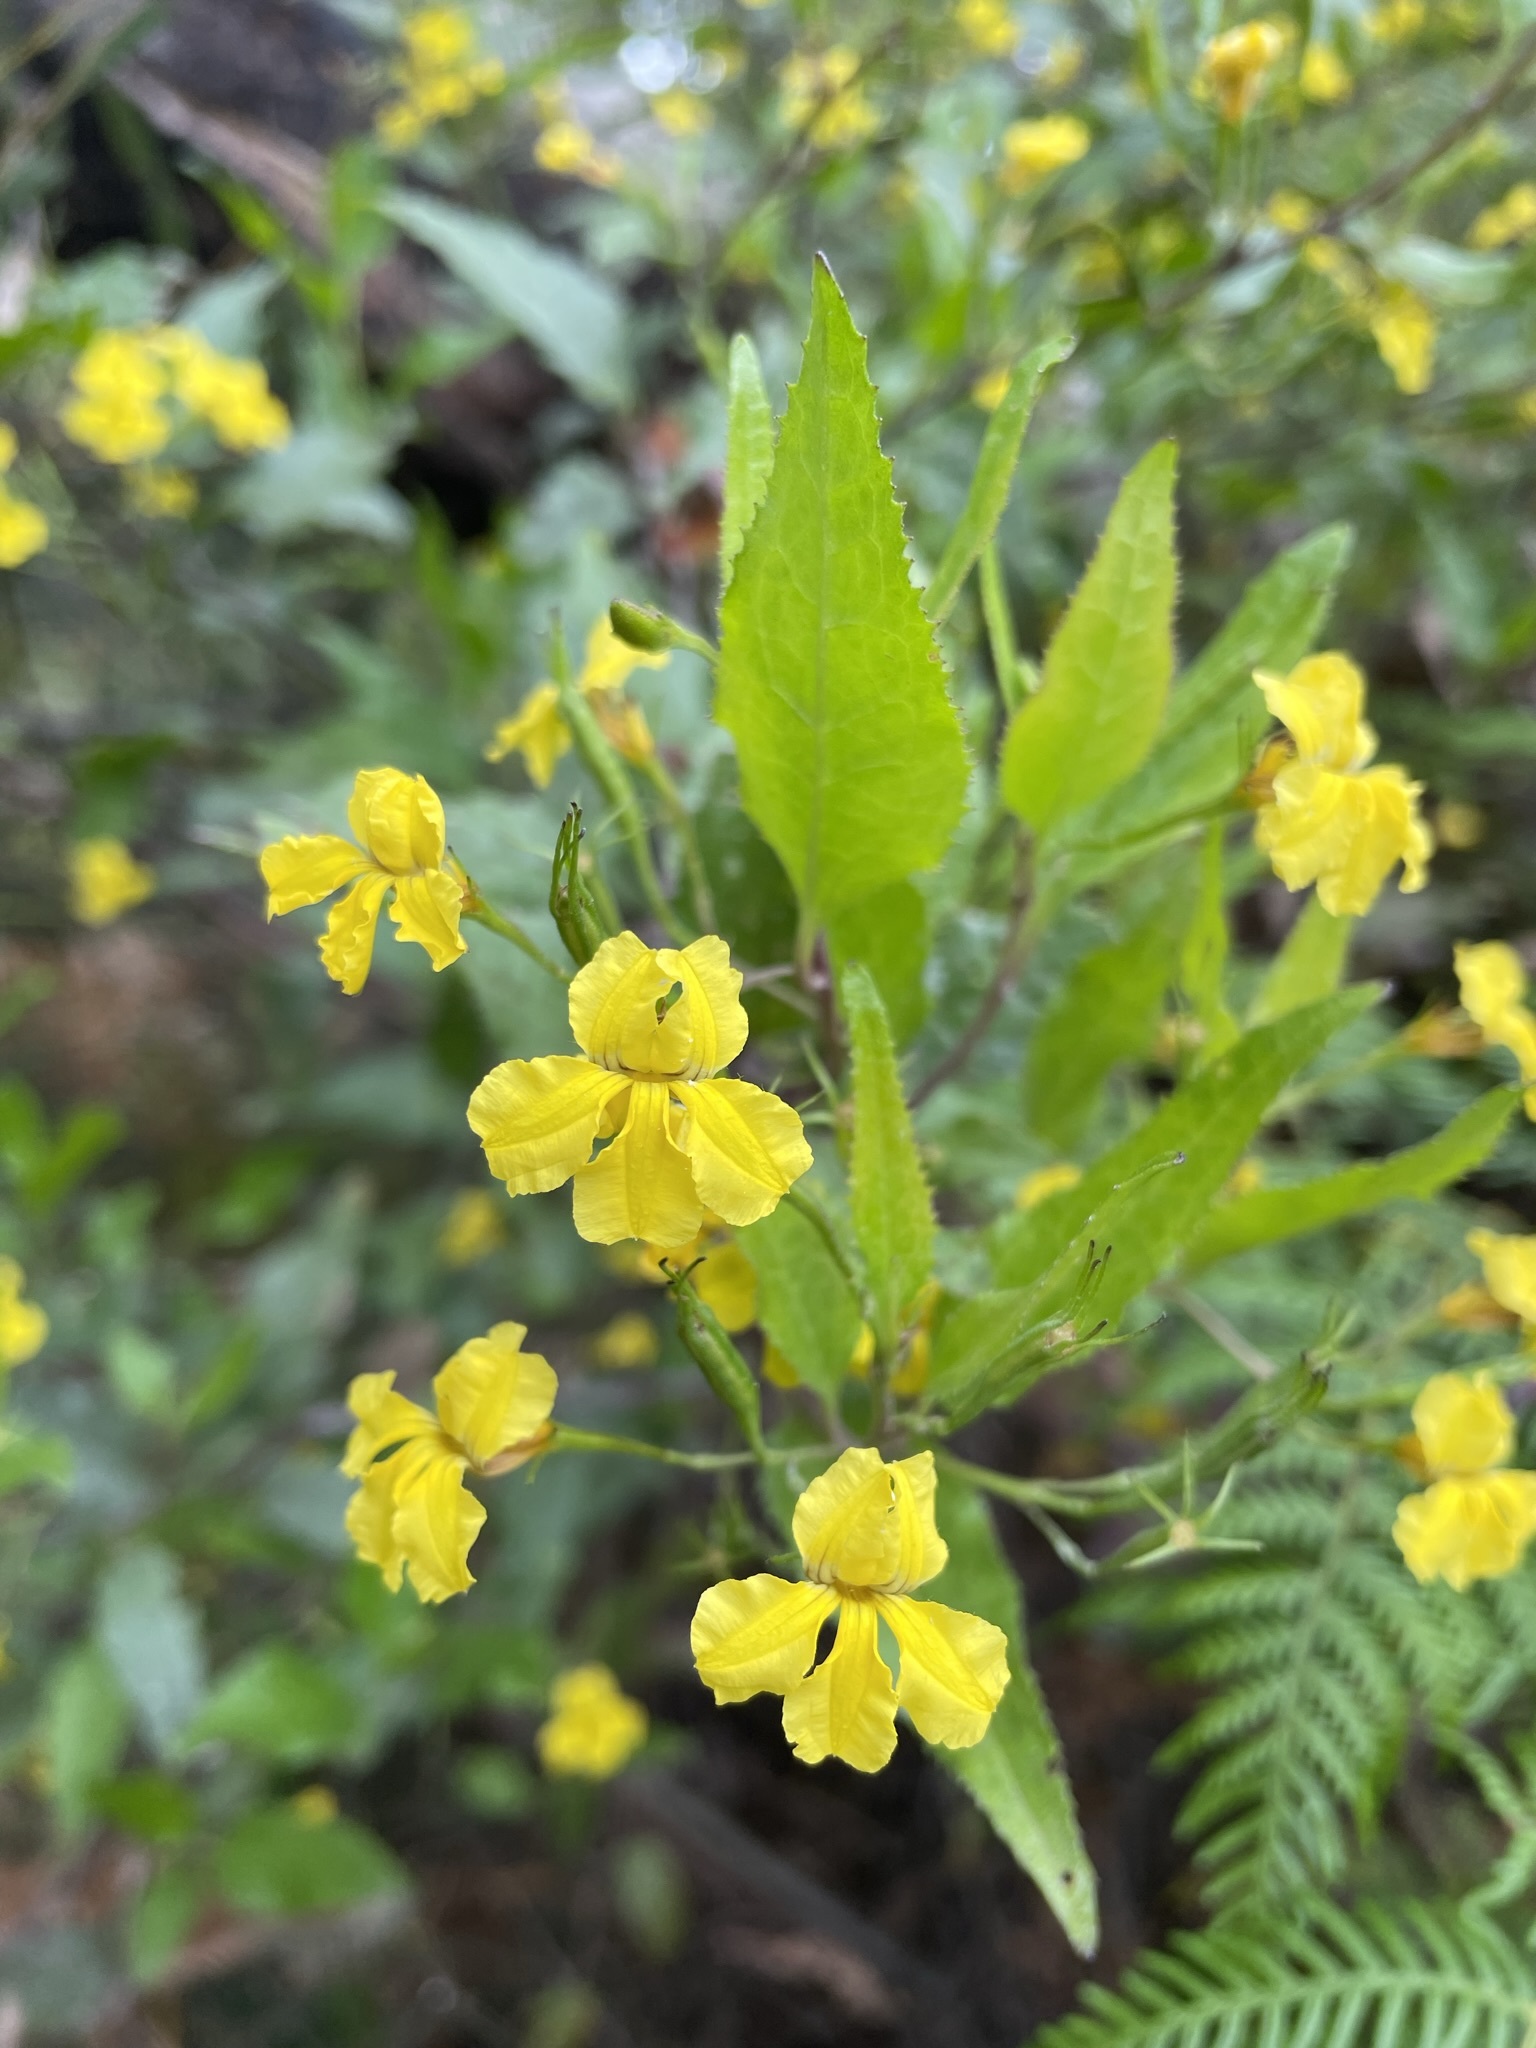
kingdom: Plantae
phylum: Tracheophyta
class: Magnoliopsida
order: Asterales
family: Goodeniaceae
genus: Goodenia
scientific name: Goodenia ovata
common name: Hop goodenia
